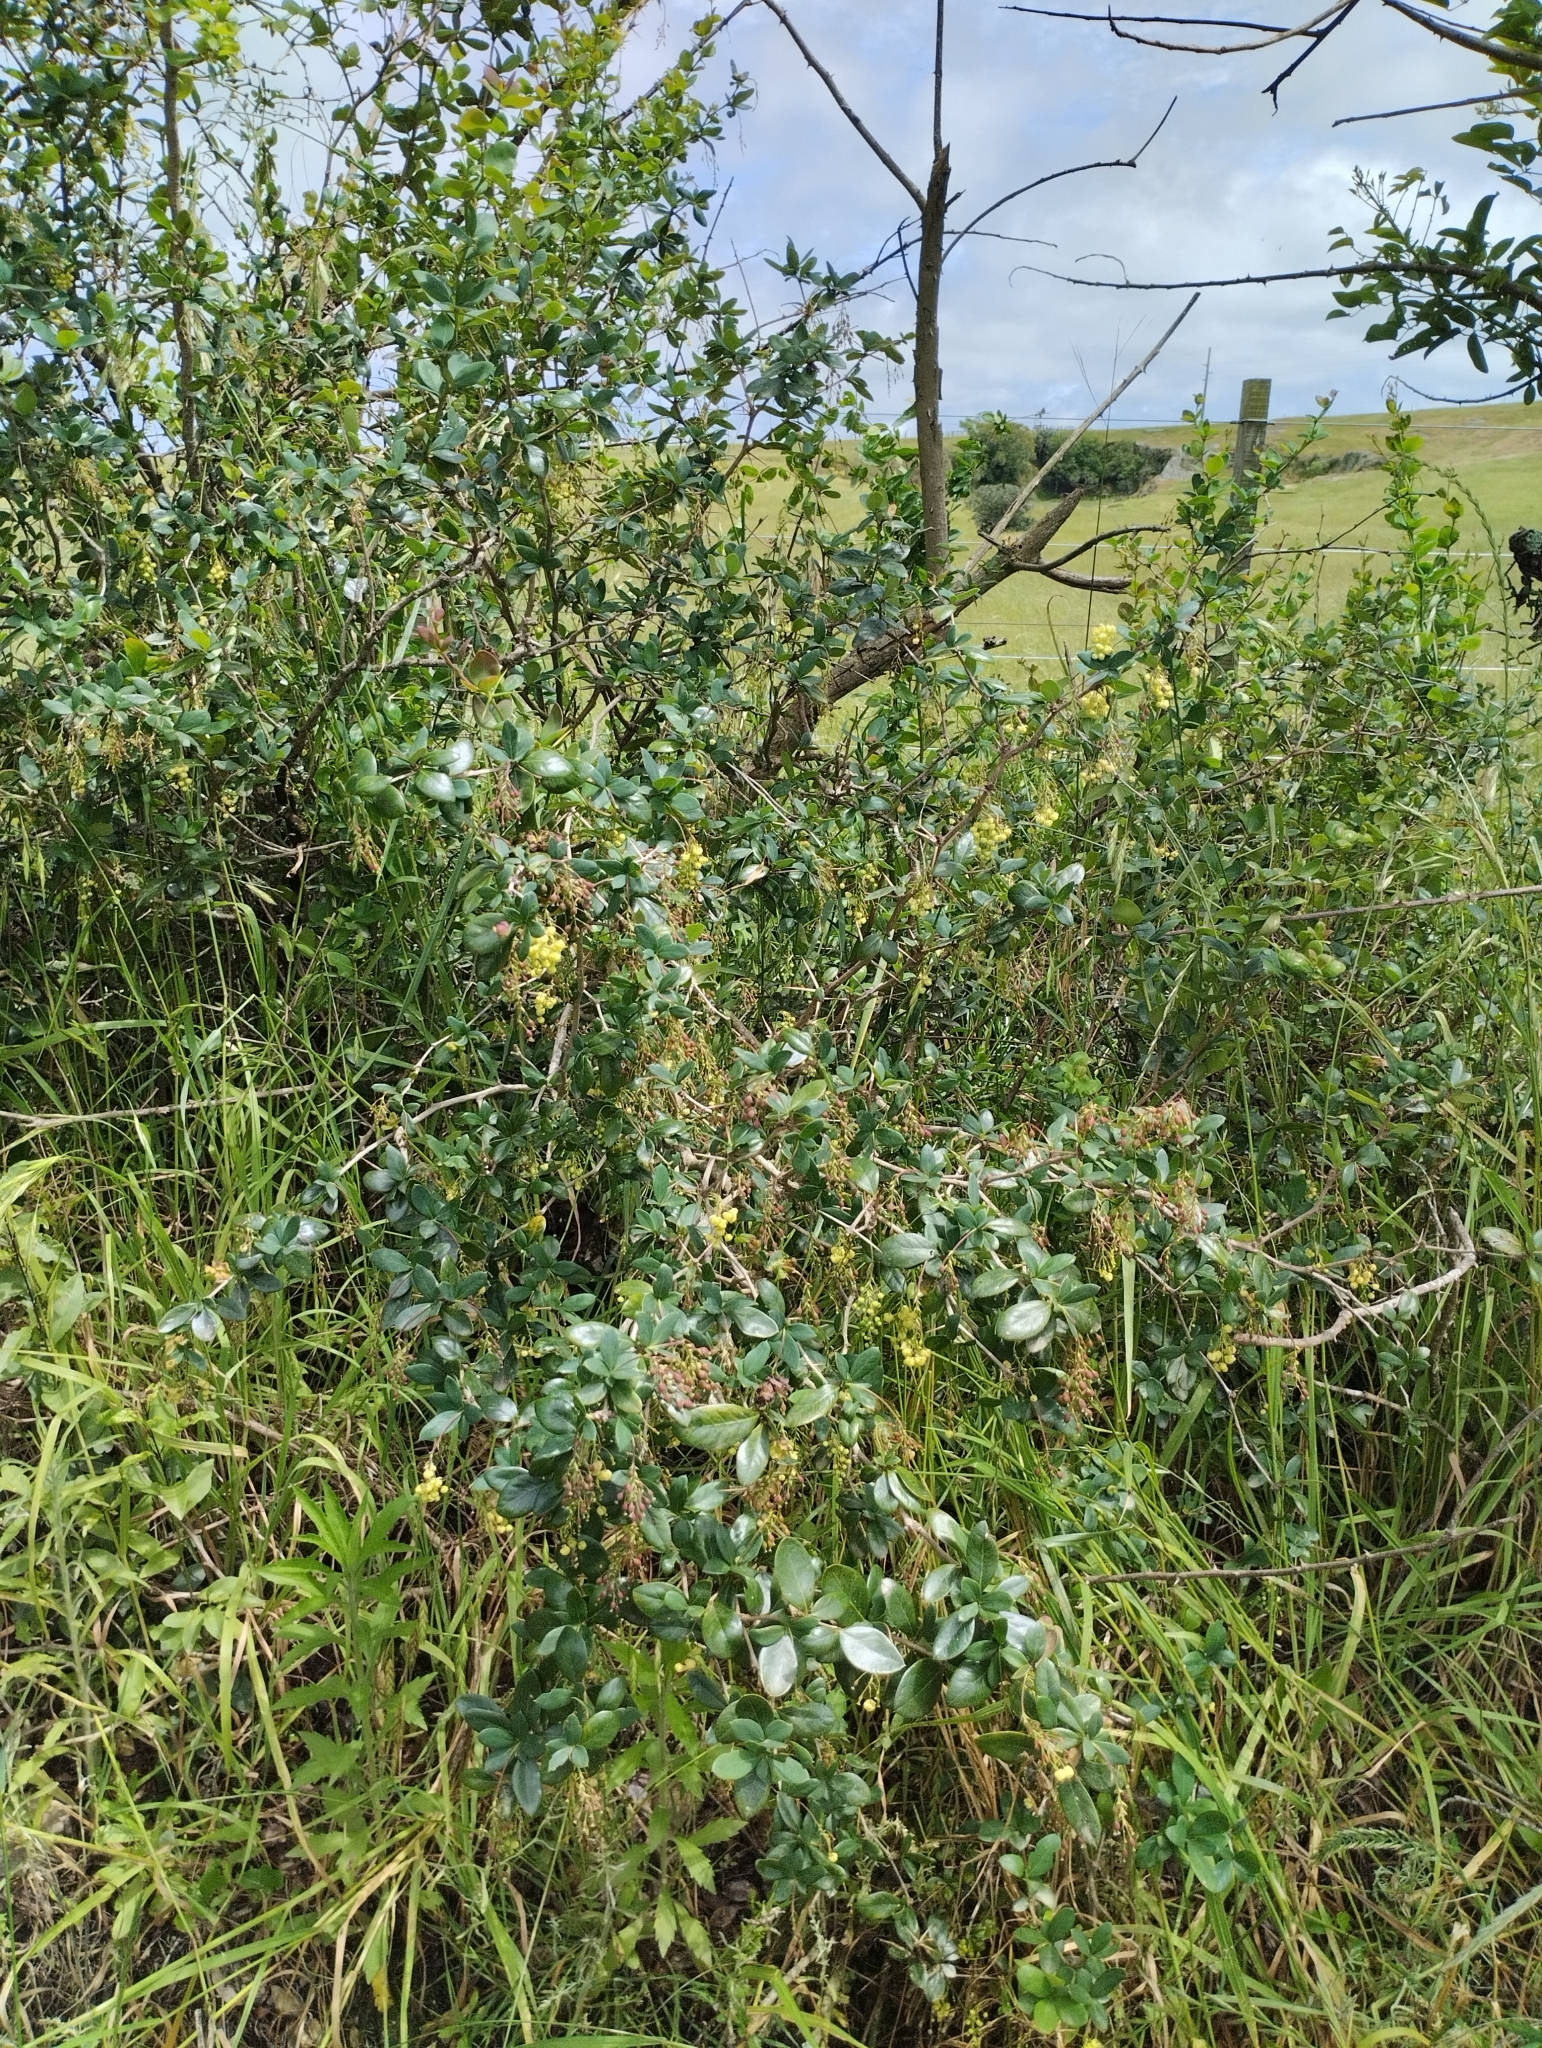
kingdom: Plantae
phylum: Tracheophyta
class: Magnoliopsida
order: Ranunculales
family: Berberidaceae
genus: Berberis
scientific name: Berberis laurina
